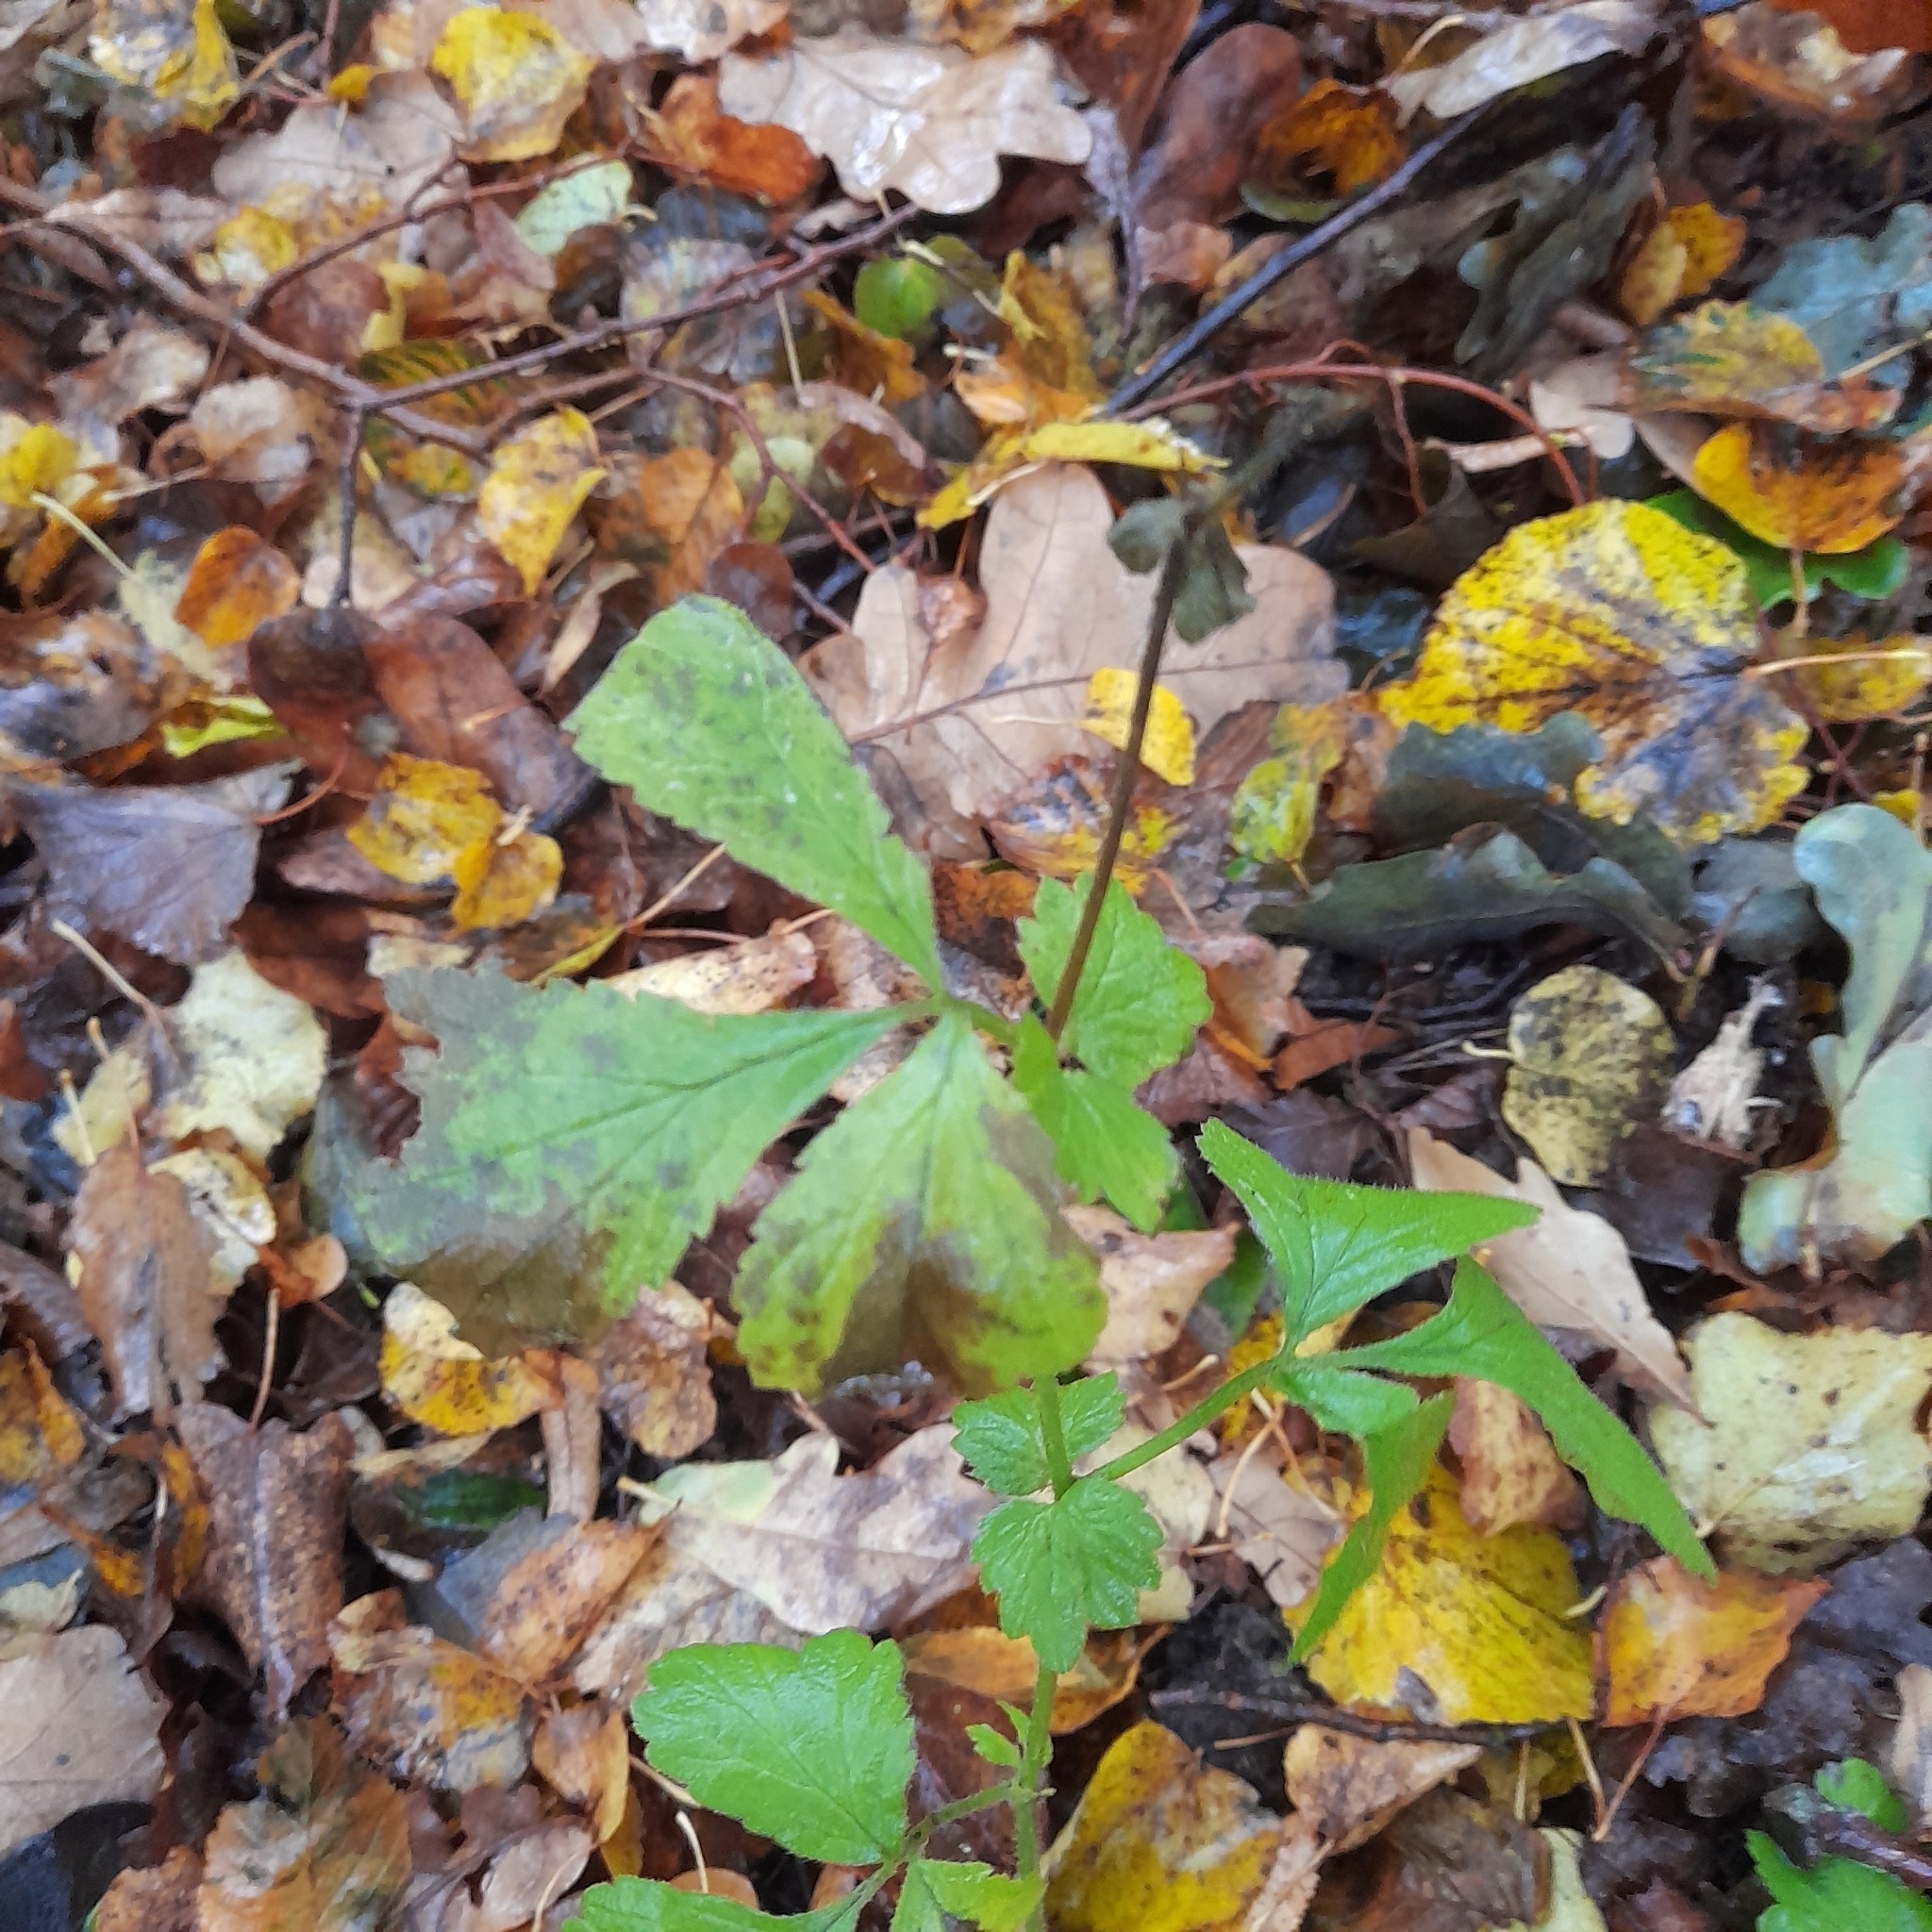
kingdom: Plantae
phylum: Tracheophyta
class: Magnoliopsida
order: Rosales
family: Rosaceae
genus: Geum
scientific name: Geum urbanum
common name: Wood avens
